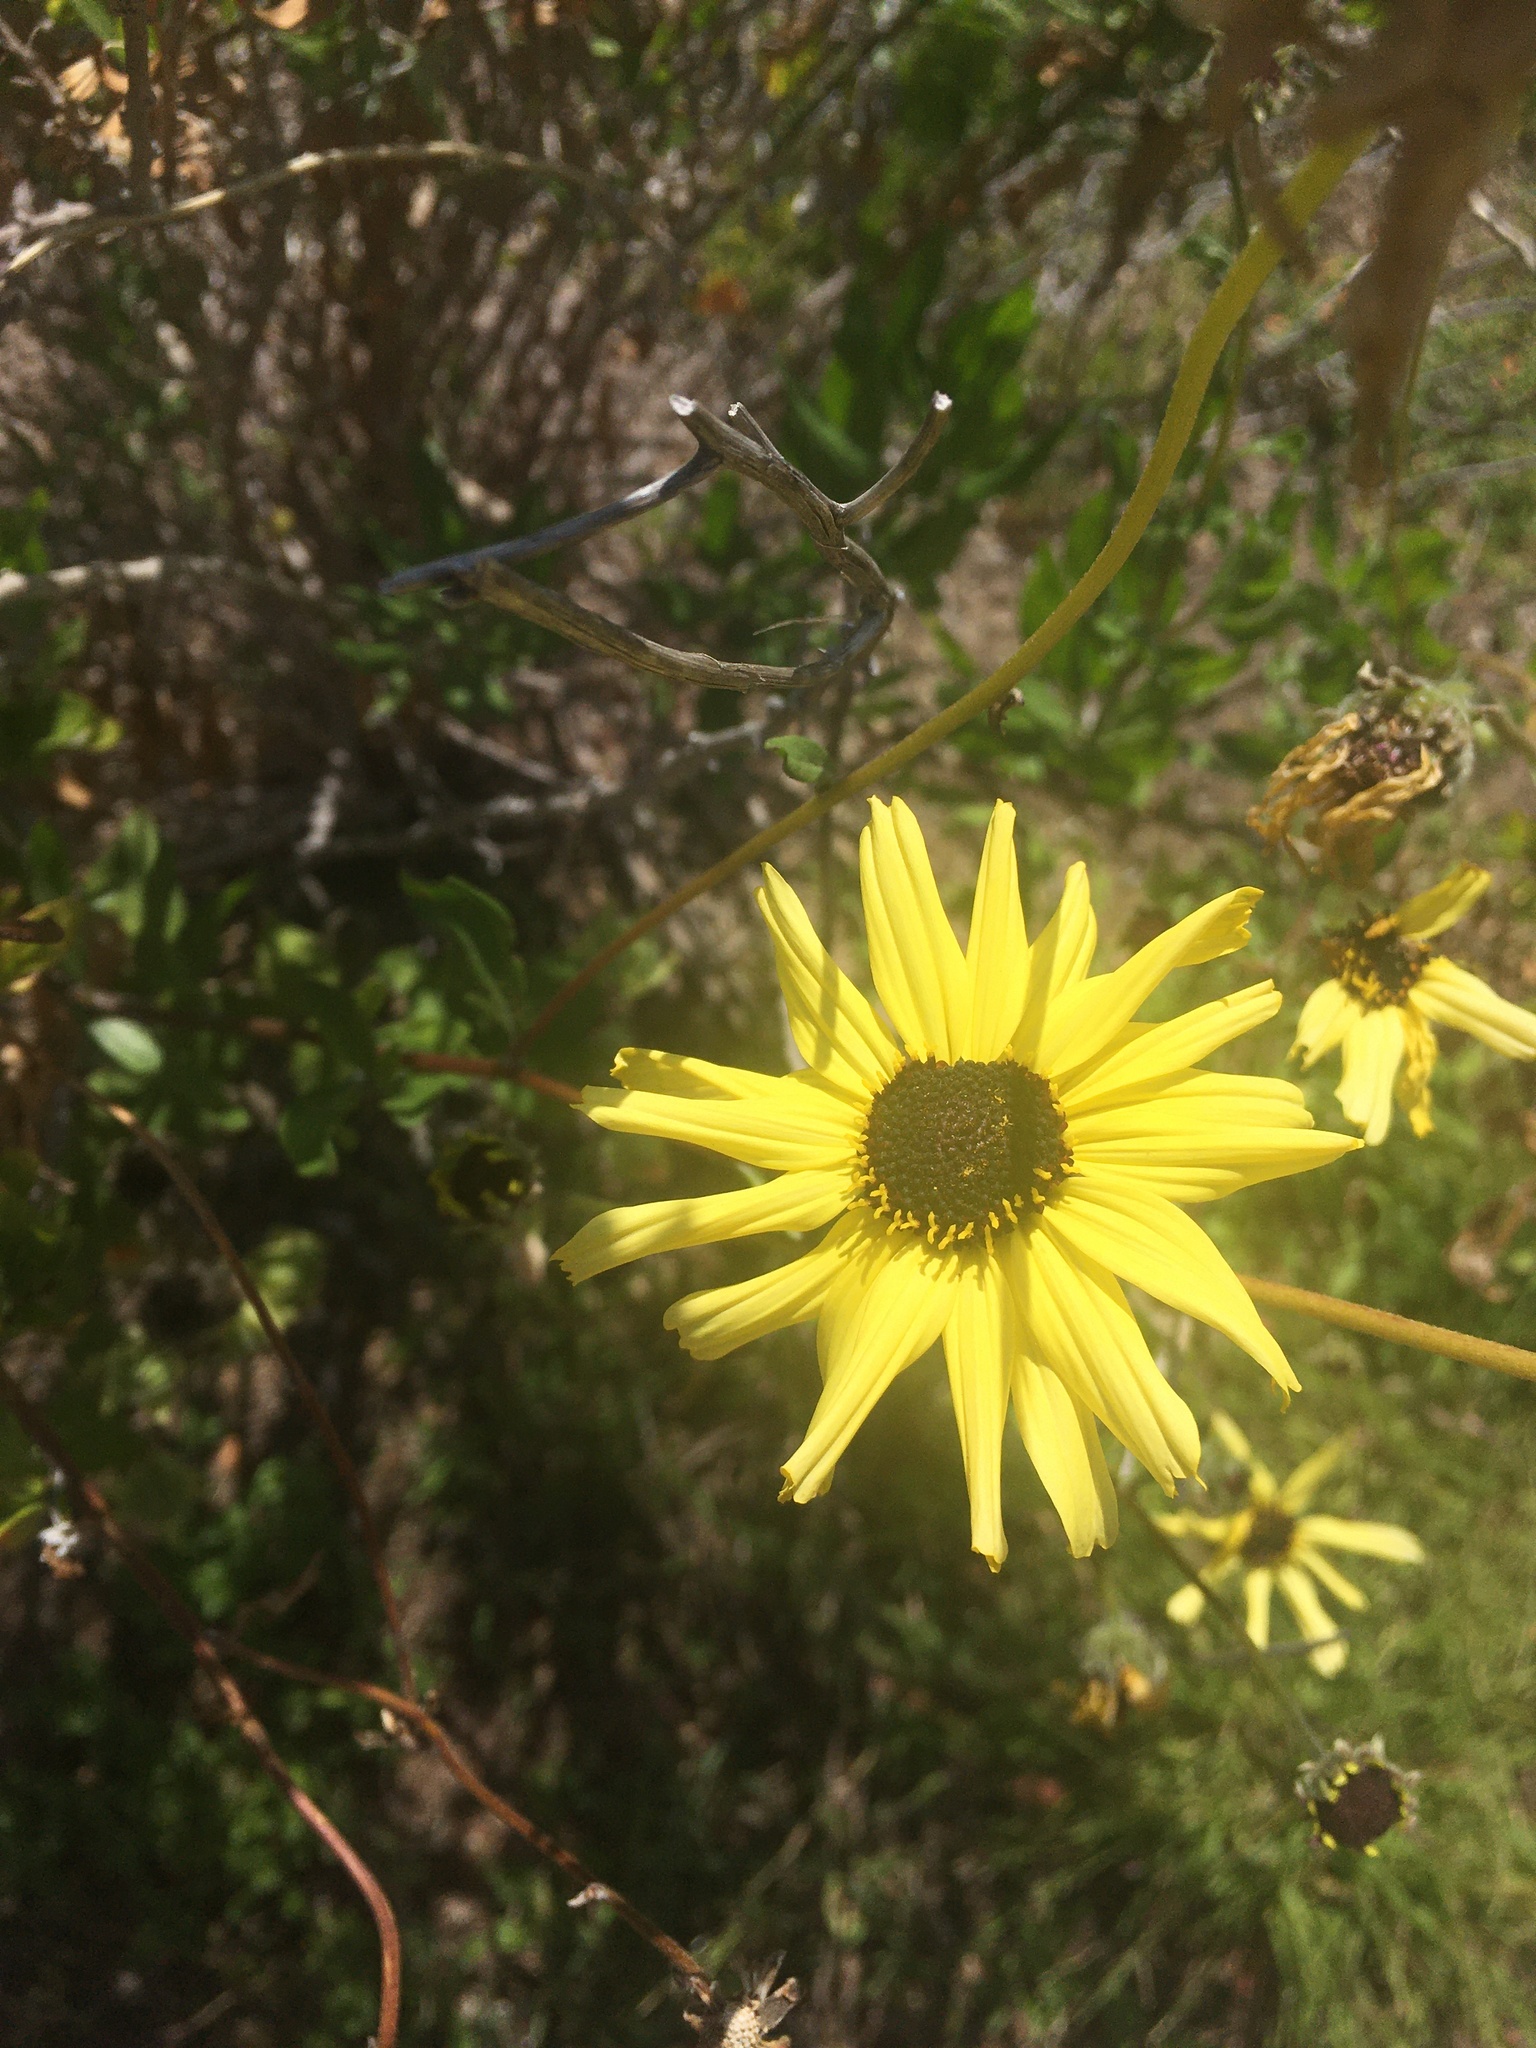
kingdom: Plantae
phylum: Tracheophyta
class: Magnoliopsida
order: Asterales
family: Asteraceae
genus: Encelia
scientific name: Encelia californica
